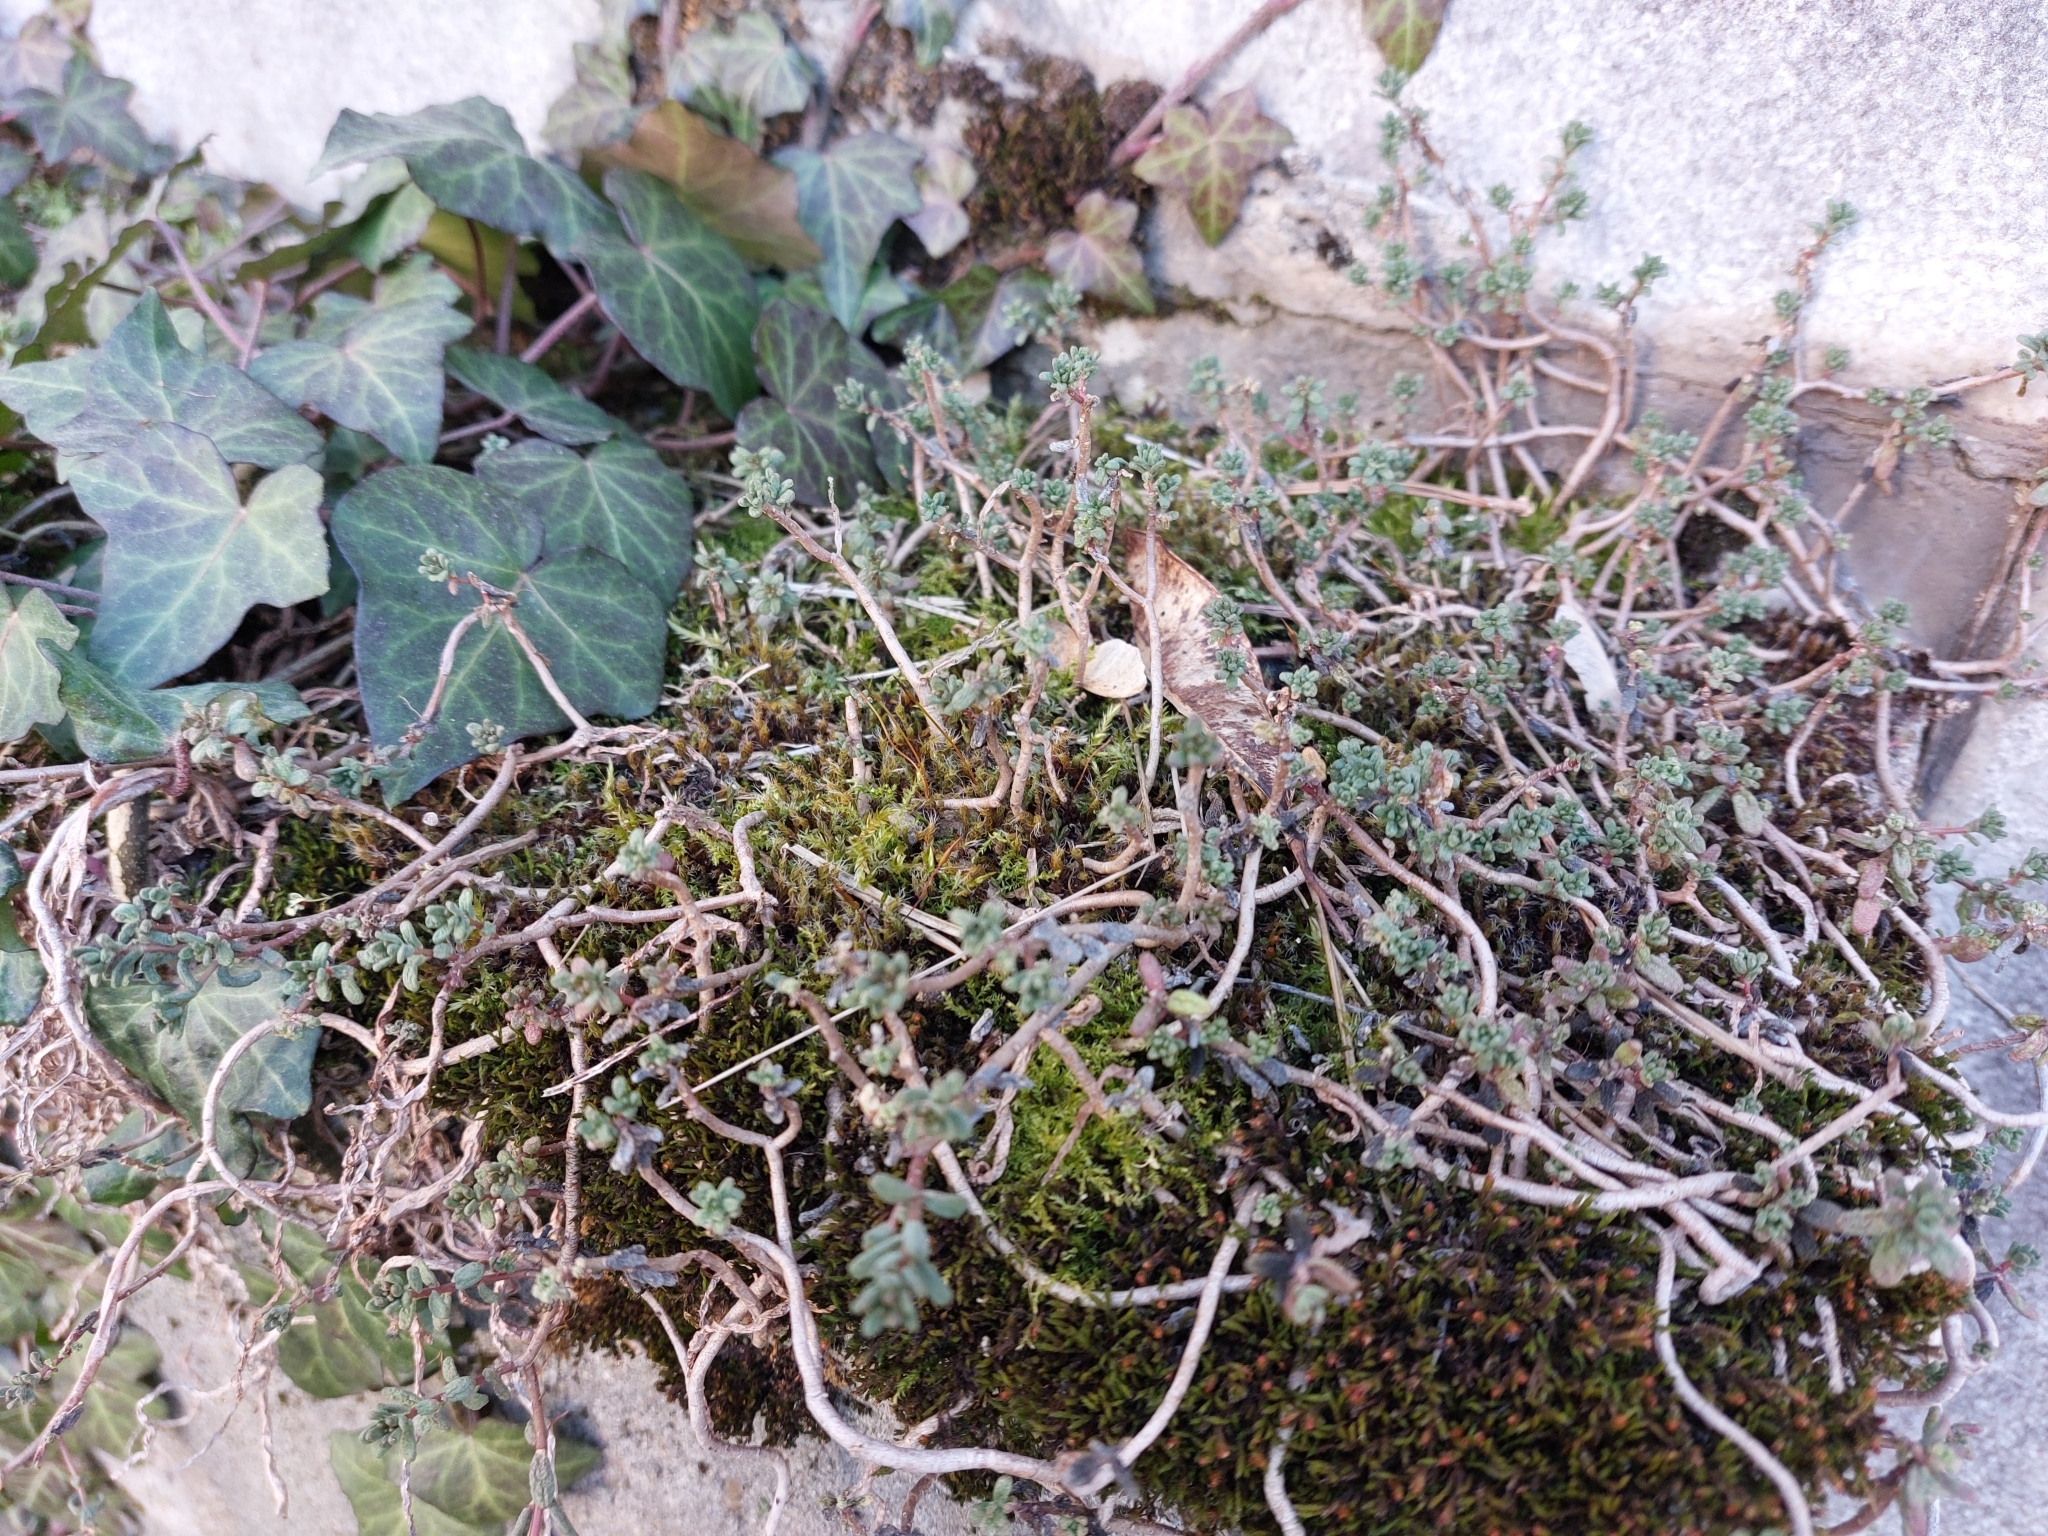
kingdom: Plantae
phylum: Tracheophyta
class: Magnoliopsida
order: Saxifragales
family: Crassulaceae
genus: Sedum
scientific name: Sedum album
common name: White stonecrop
